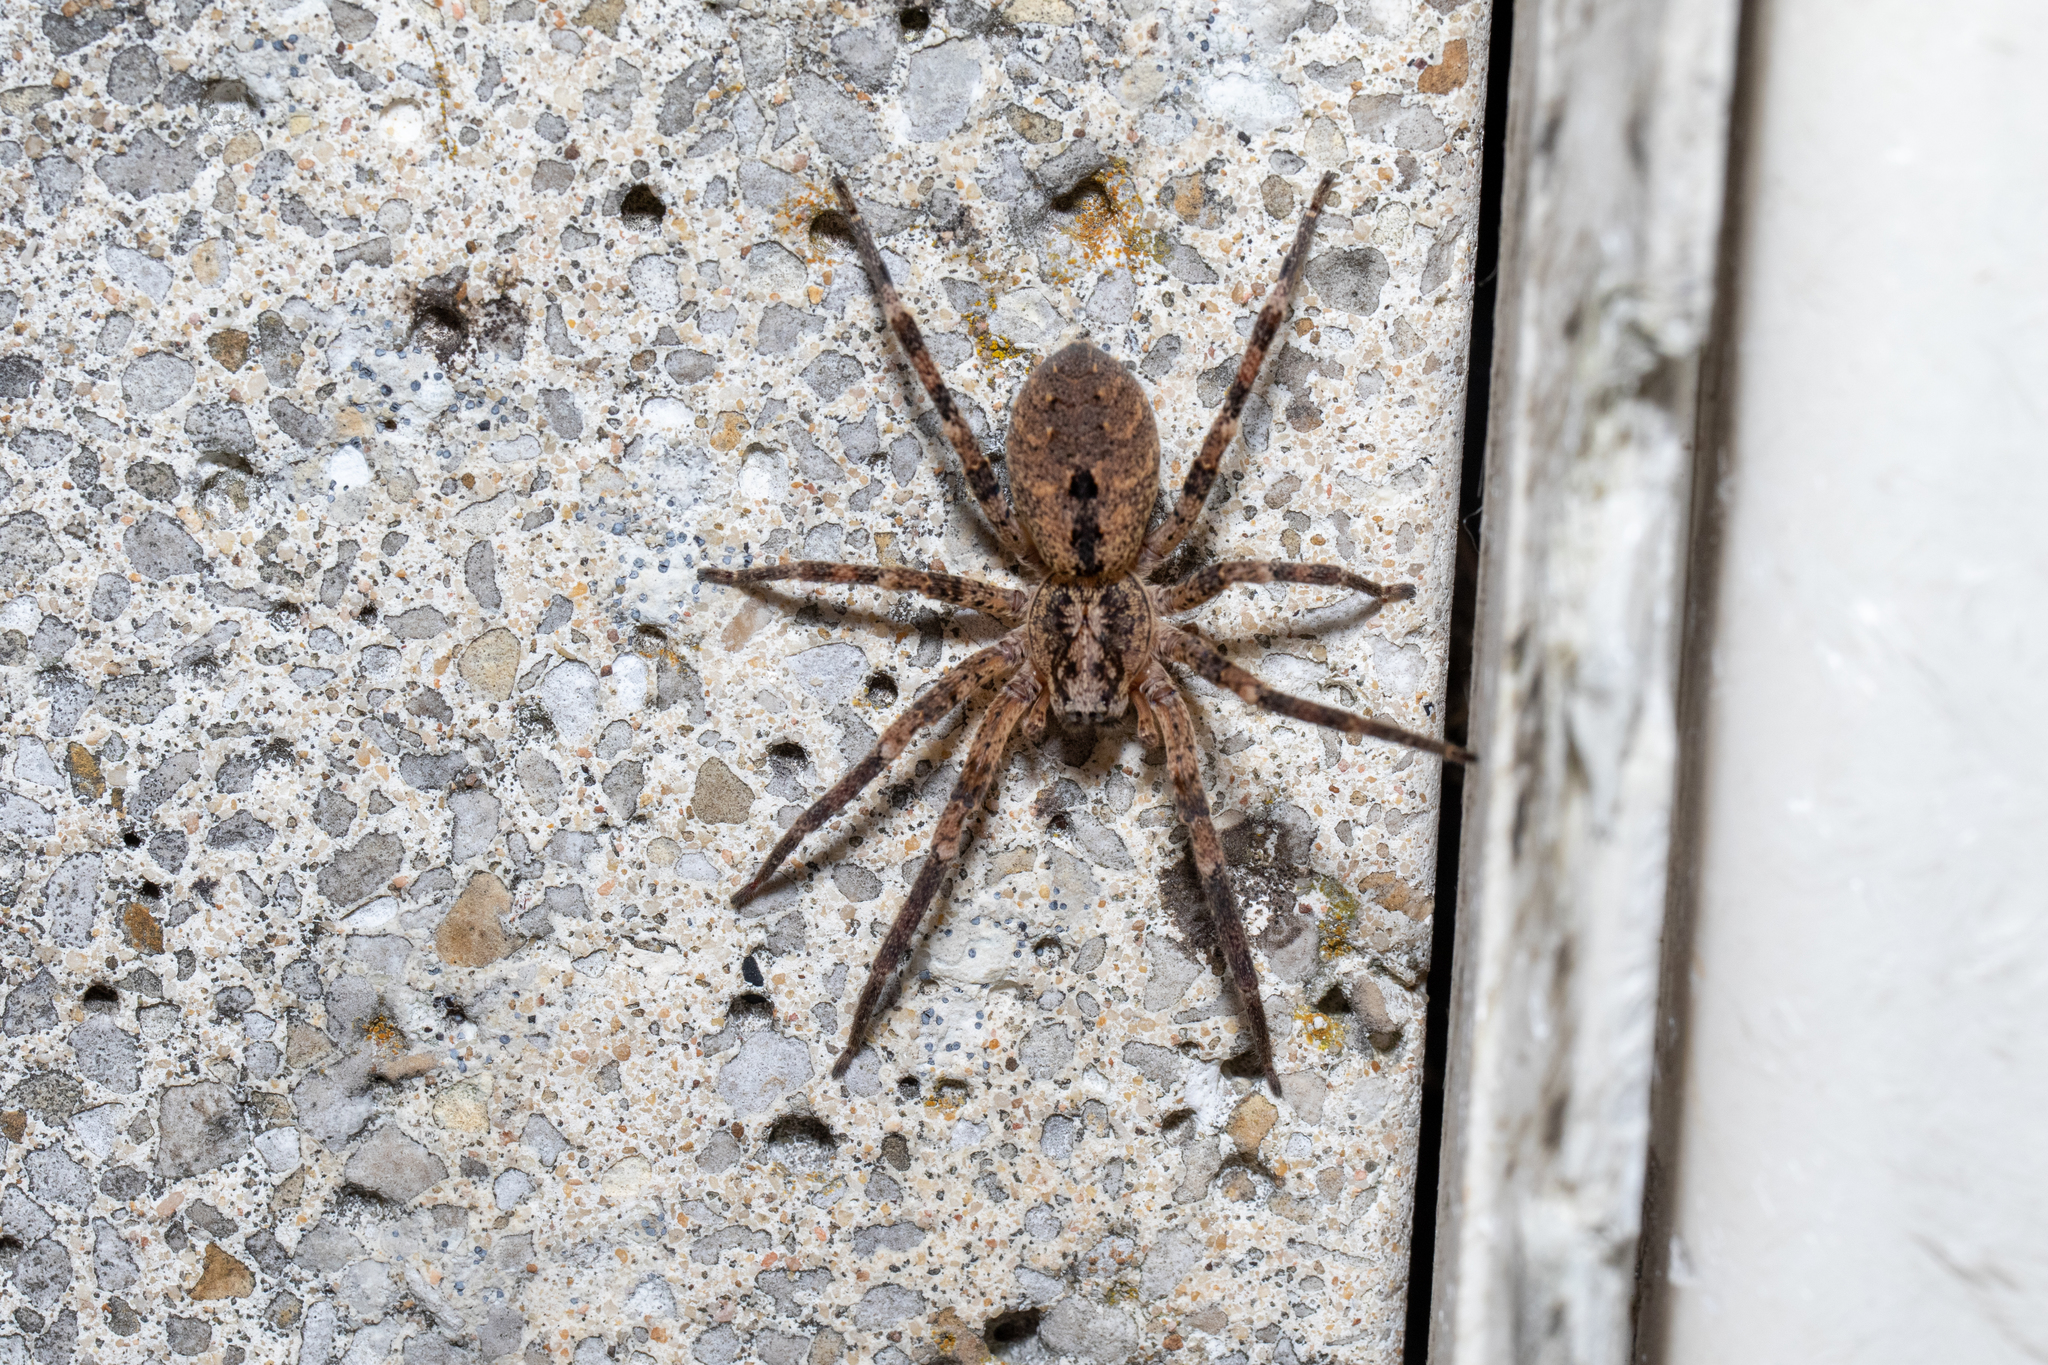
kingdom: Animalia
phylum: Arthropoda
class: Arachnida
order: Araneae
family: Zoropsidae
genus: Zoropsis
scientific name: Zoropsis spinimana
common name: Zoropsid spider
